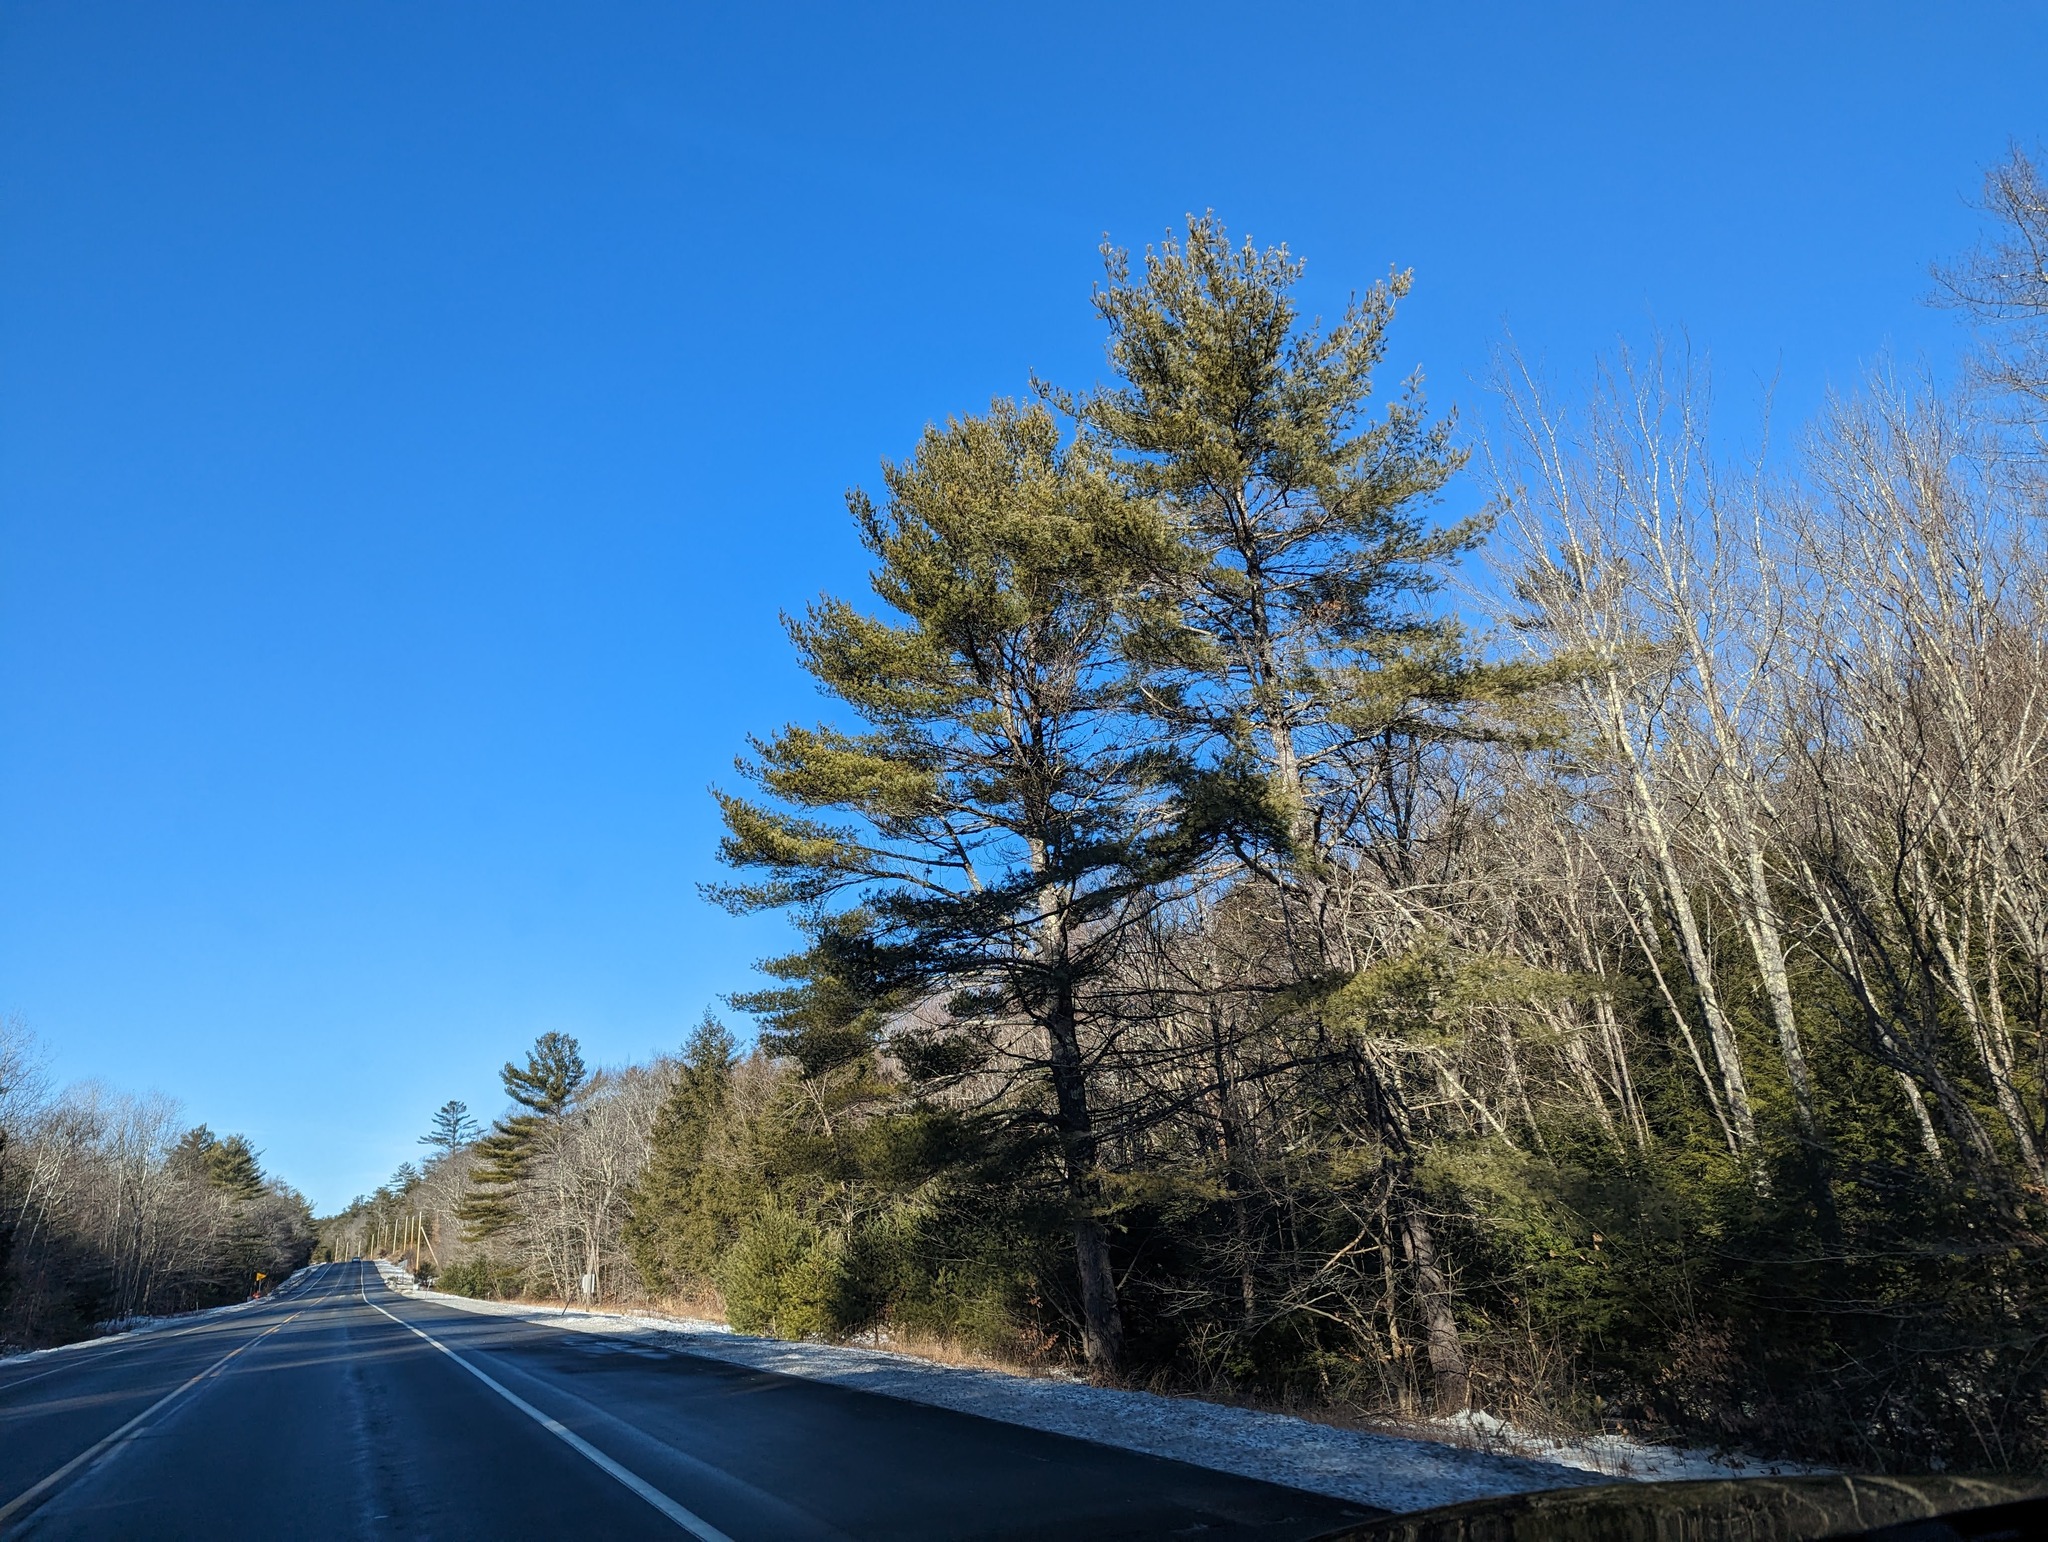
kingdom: Plantae
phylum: Tracheophyta
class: Pinopsida
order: Pinales
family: Pinaceae
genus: Pinus
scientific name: Pinus strobus
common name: Weymouth pine
